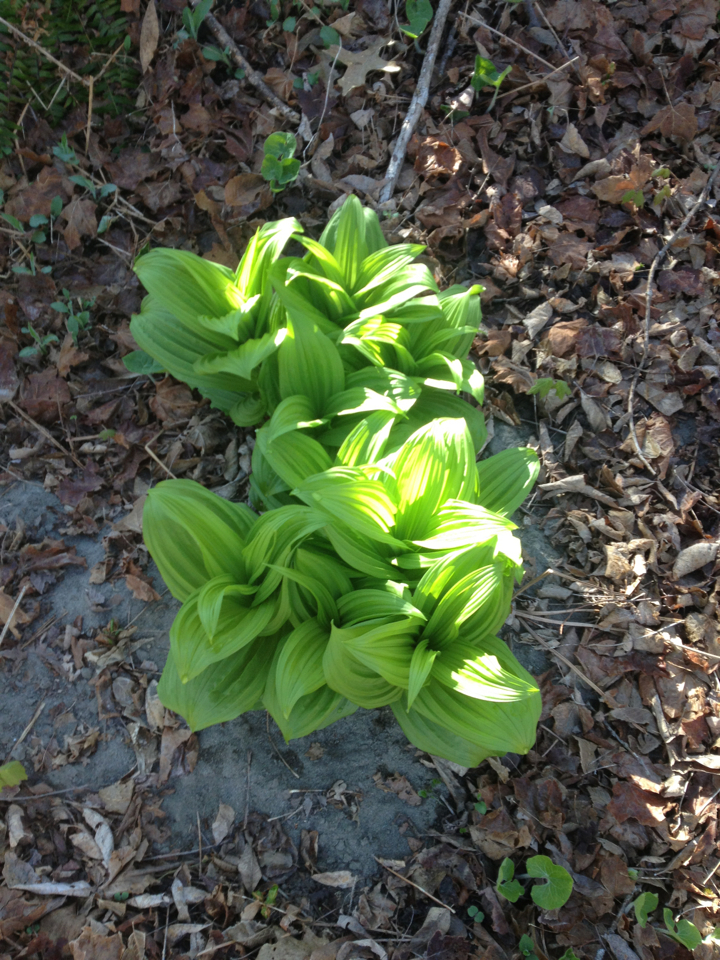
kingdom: Plantae
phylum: Tracheophyta
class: Liliopsida
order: Liliales
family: Melanthiaceae
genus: Veratrum
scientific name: Veratrum viride
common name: American false hellebore
